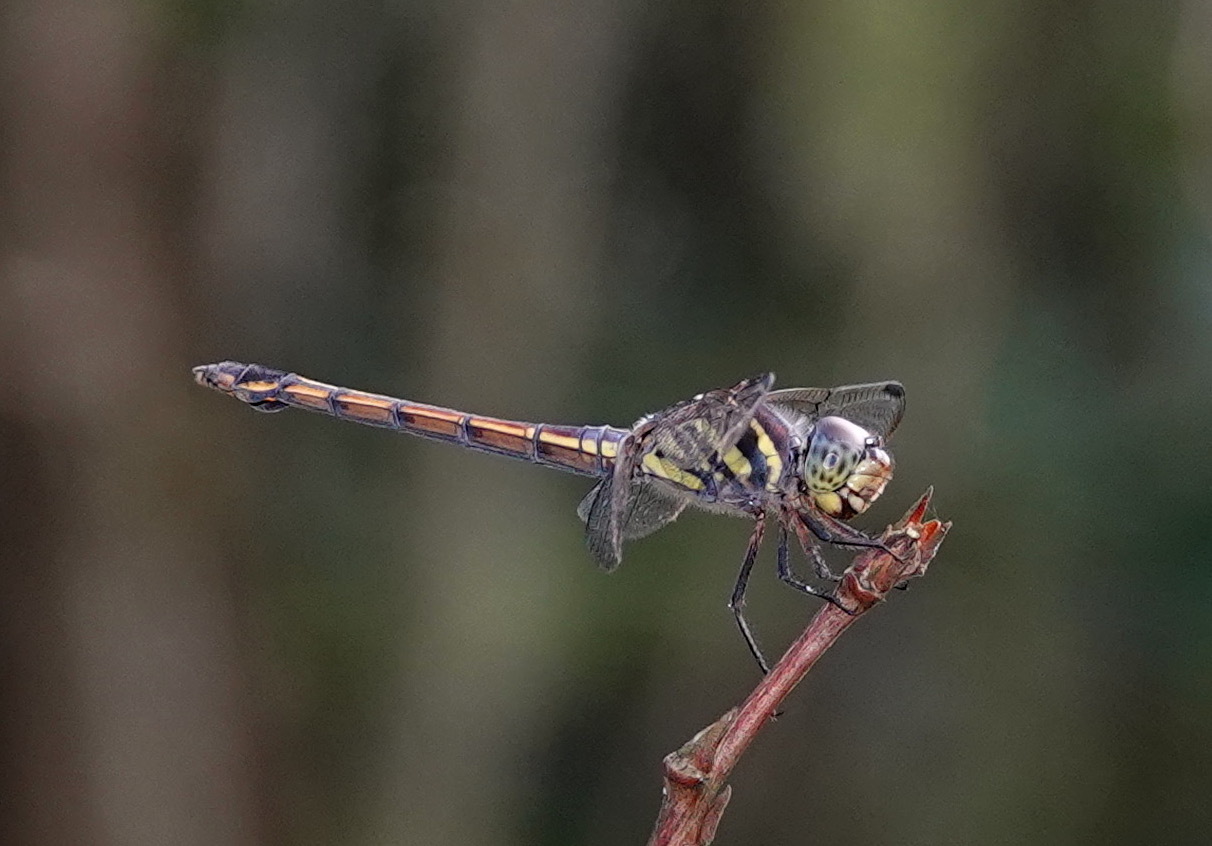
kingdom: Animalia
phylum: Arthropoda
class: Insecta
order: Odonata
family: Libellulidae
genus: Potamarcha
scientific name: Potamarcha congener
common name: Blue chaser
